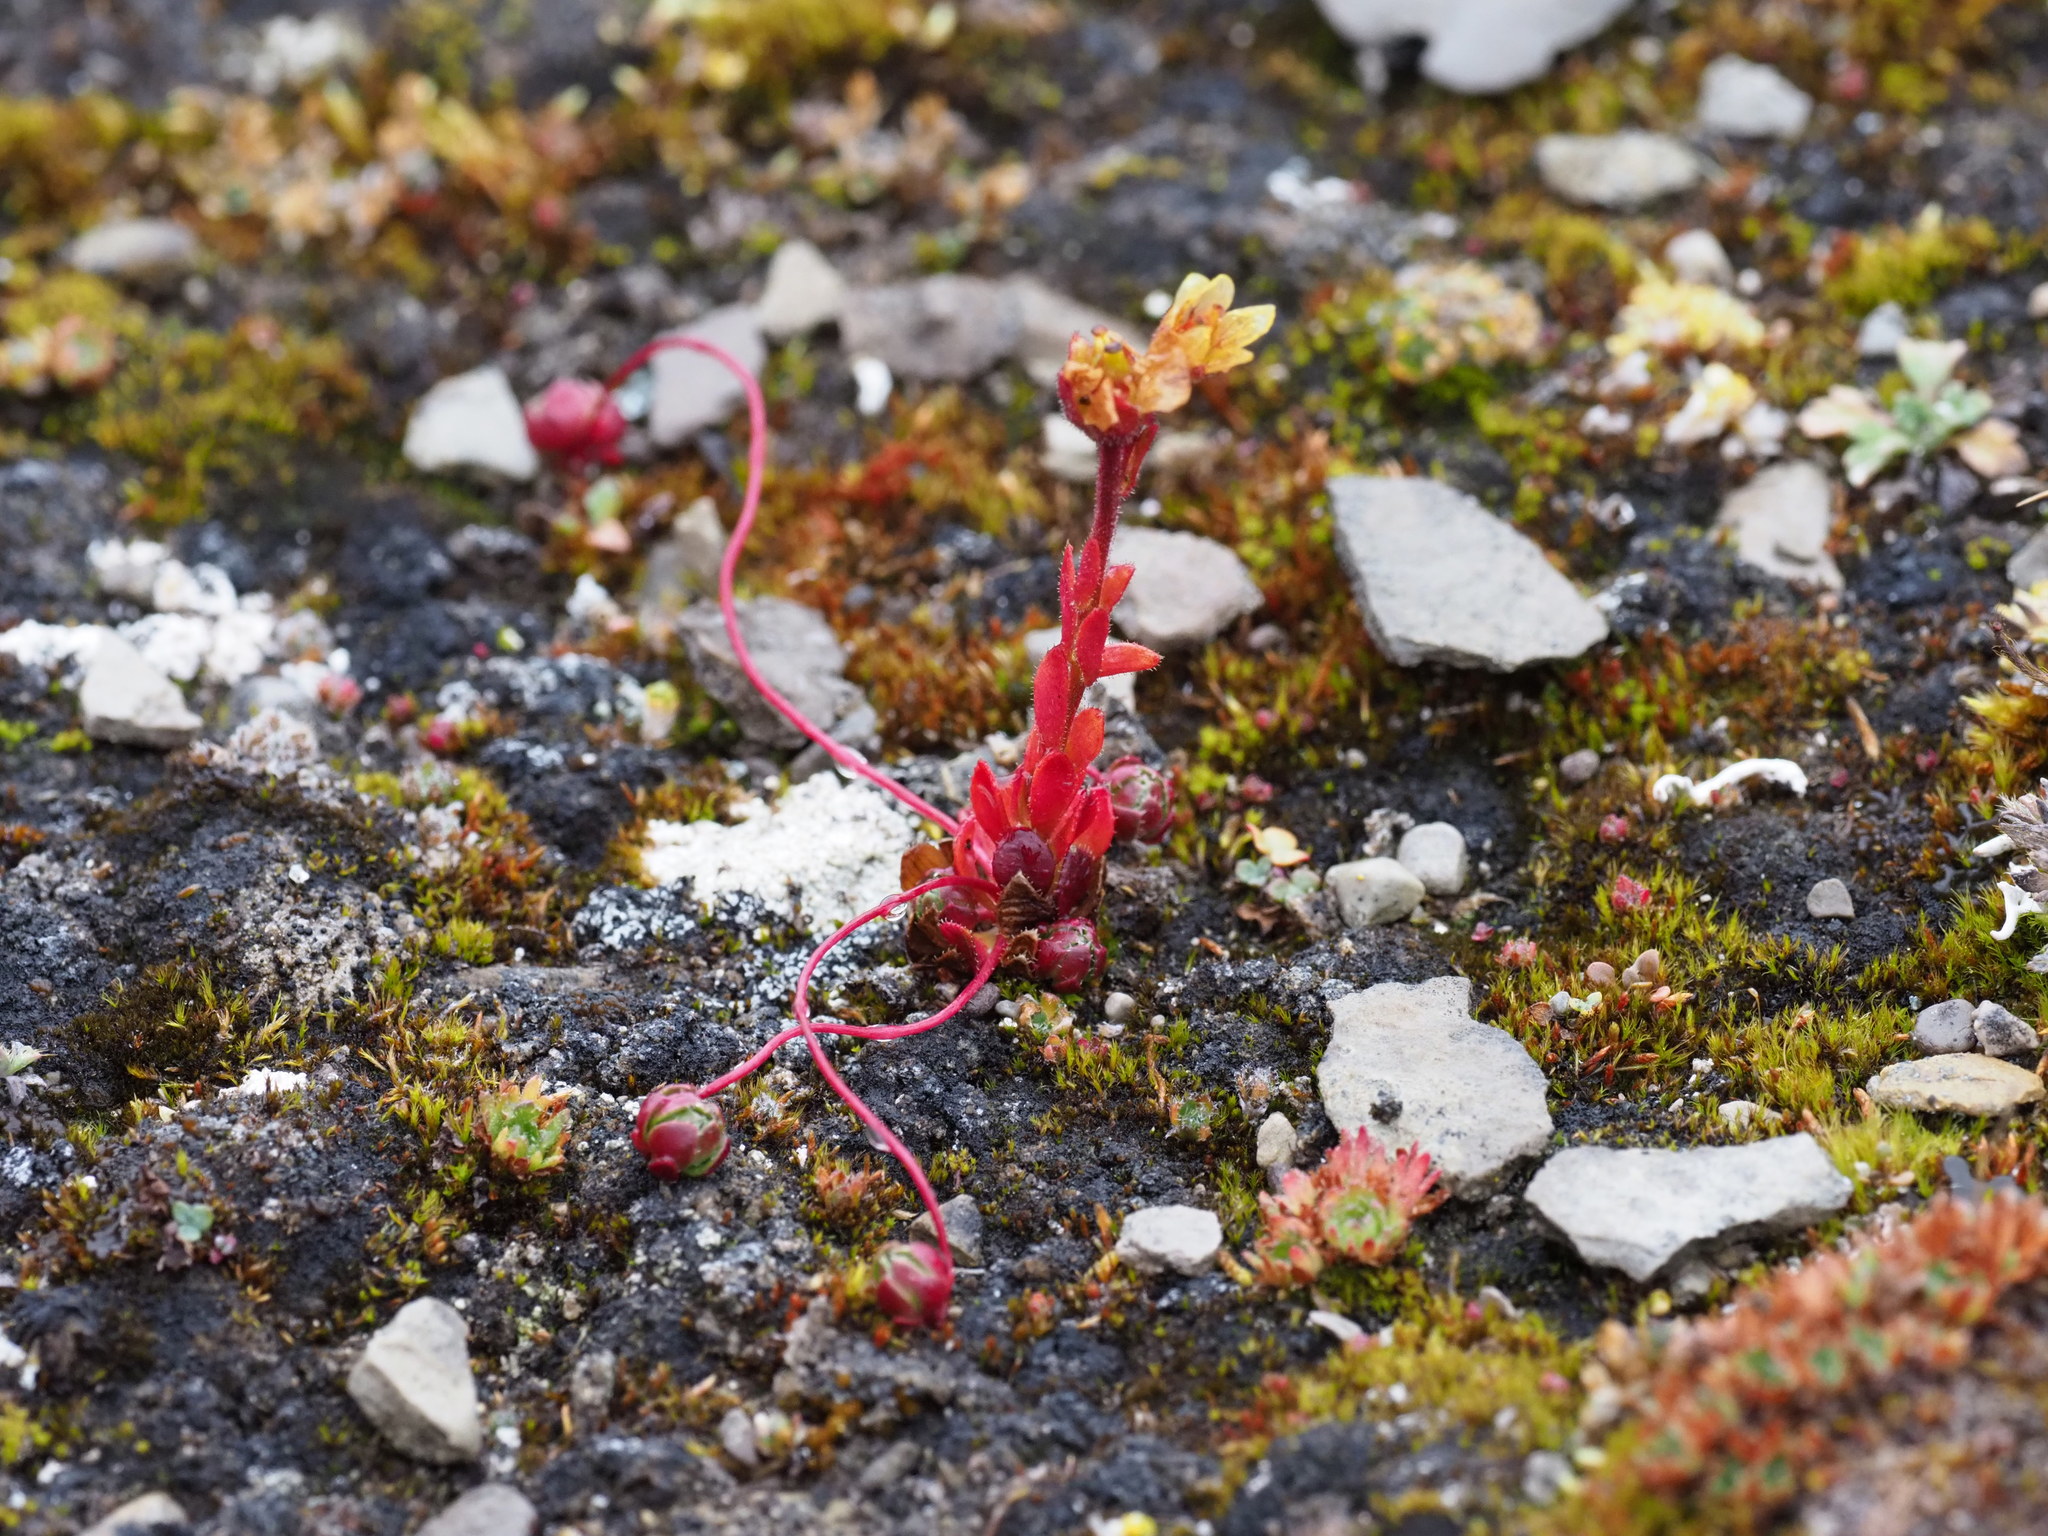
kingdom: Plantae
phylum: Tracheophyta
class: Magnoliopsida
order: Saxifragales
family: Saxifragaceae
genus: Saxifraga
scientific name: Saxifraga platysepala
